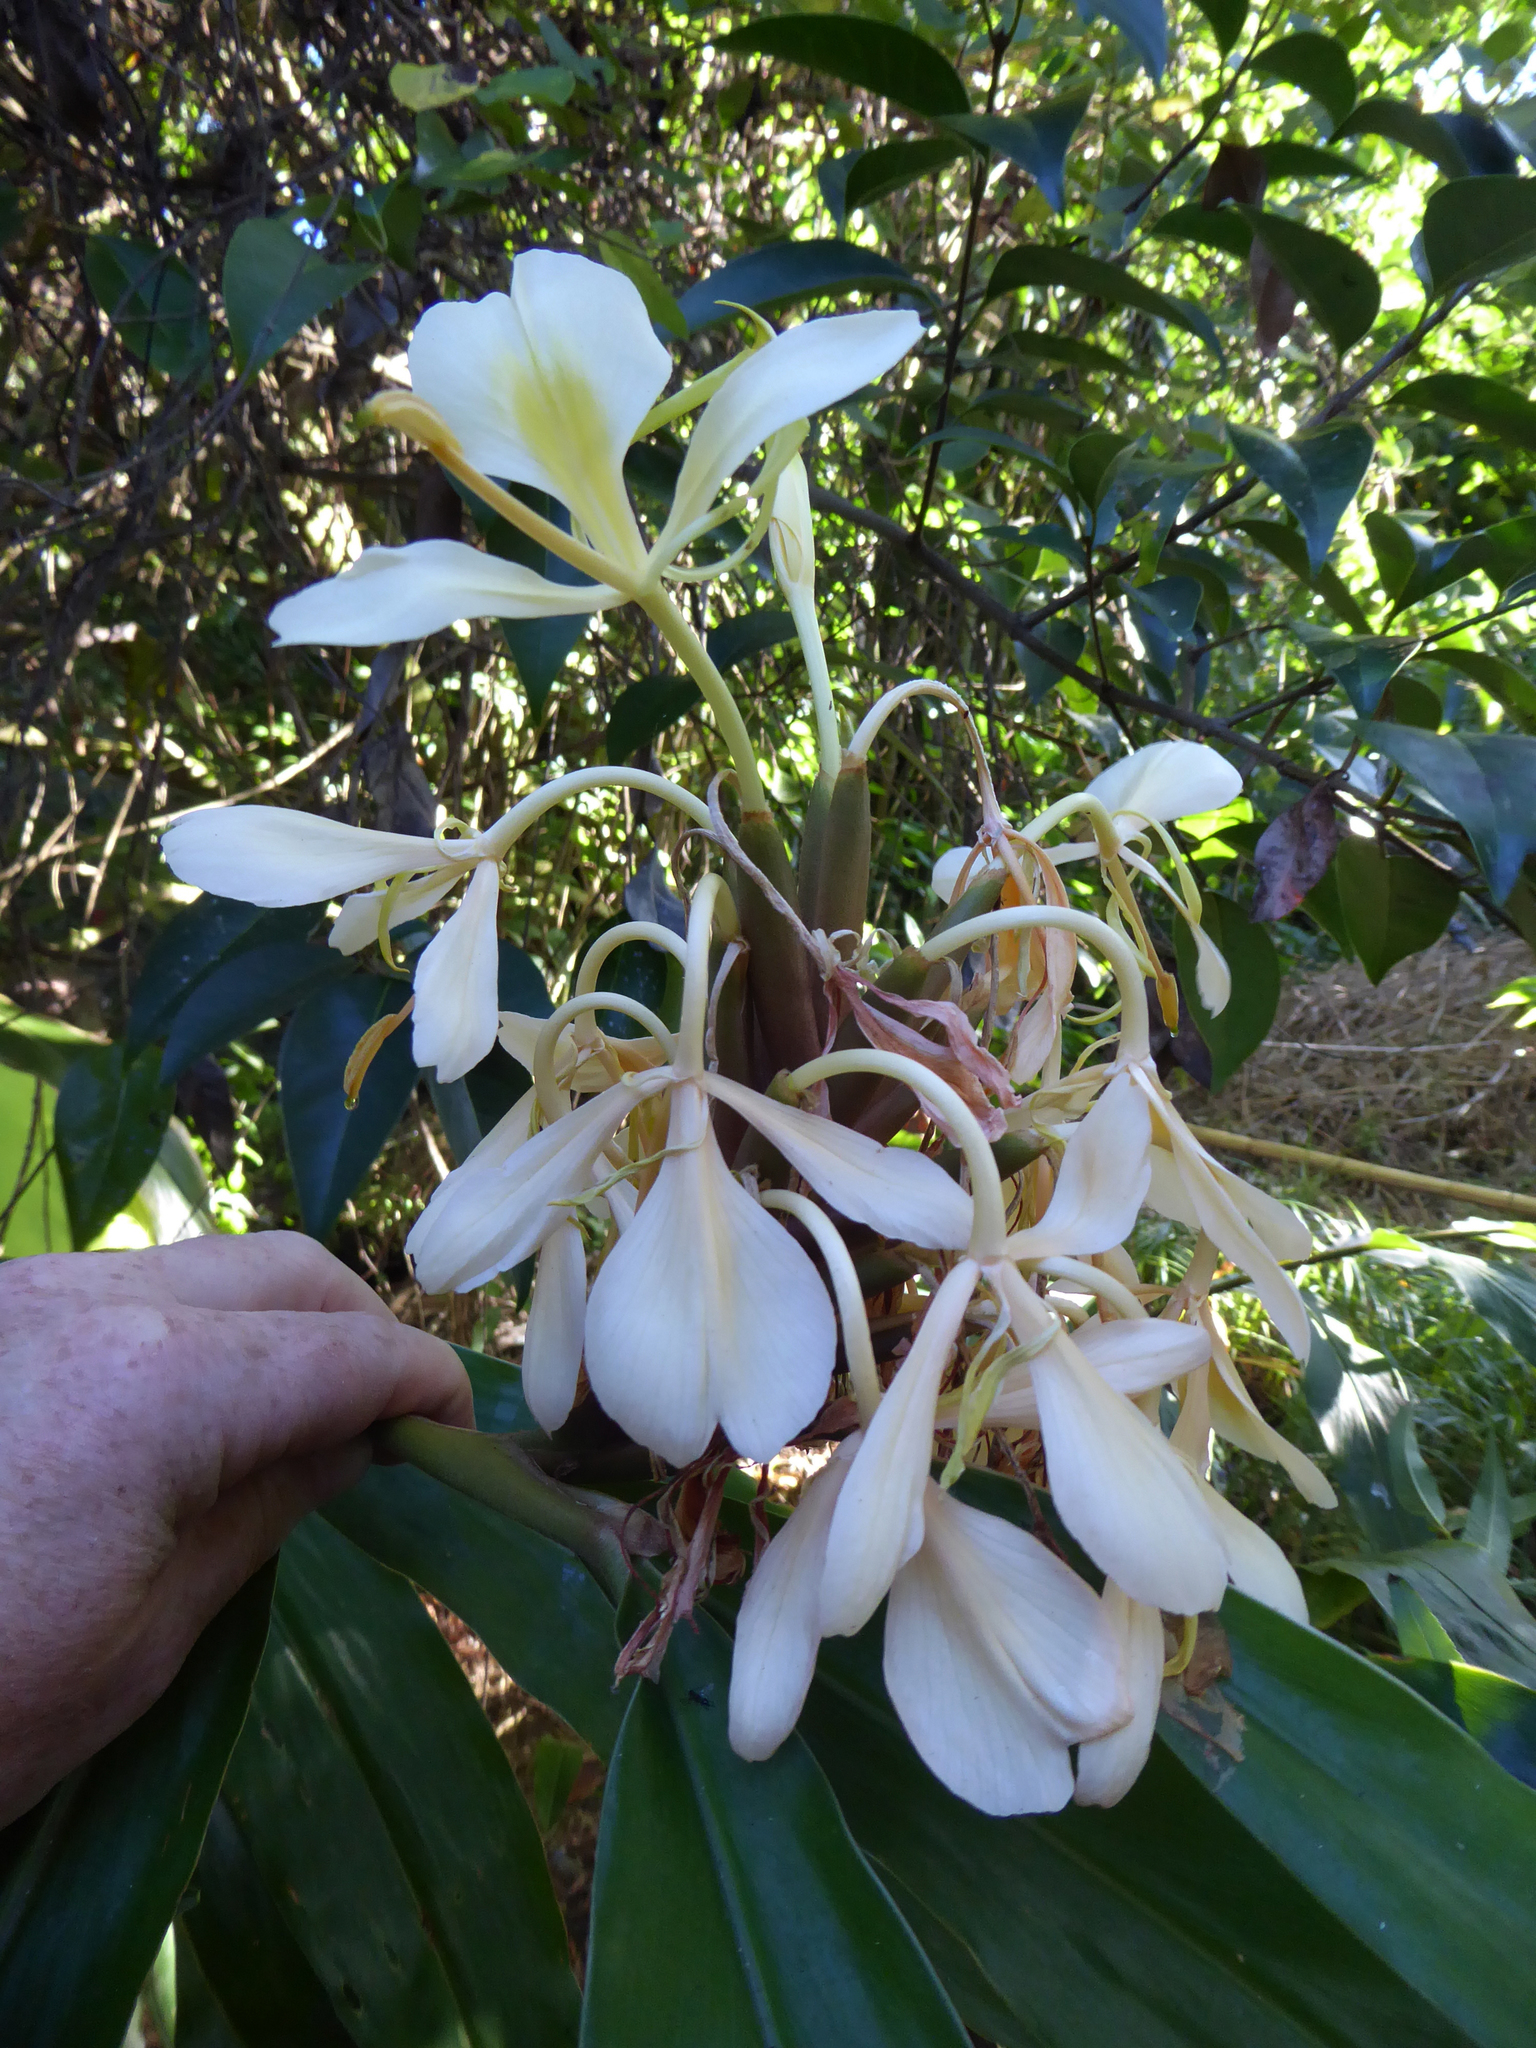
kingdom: Plantae
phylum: Tracheophyta
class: Liliopsida
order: Zingiberales
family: Zingiberaceae
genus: Hedychium
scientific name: Hedychium flavescens
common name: Yellow ginger
